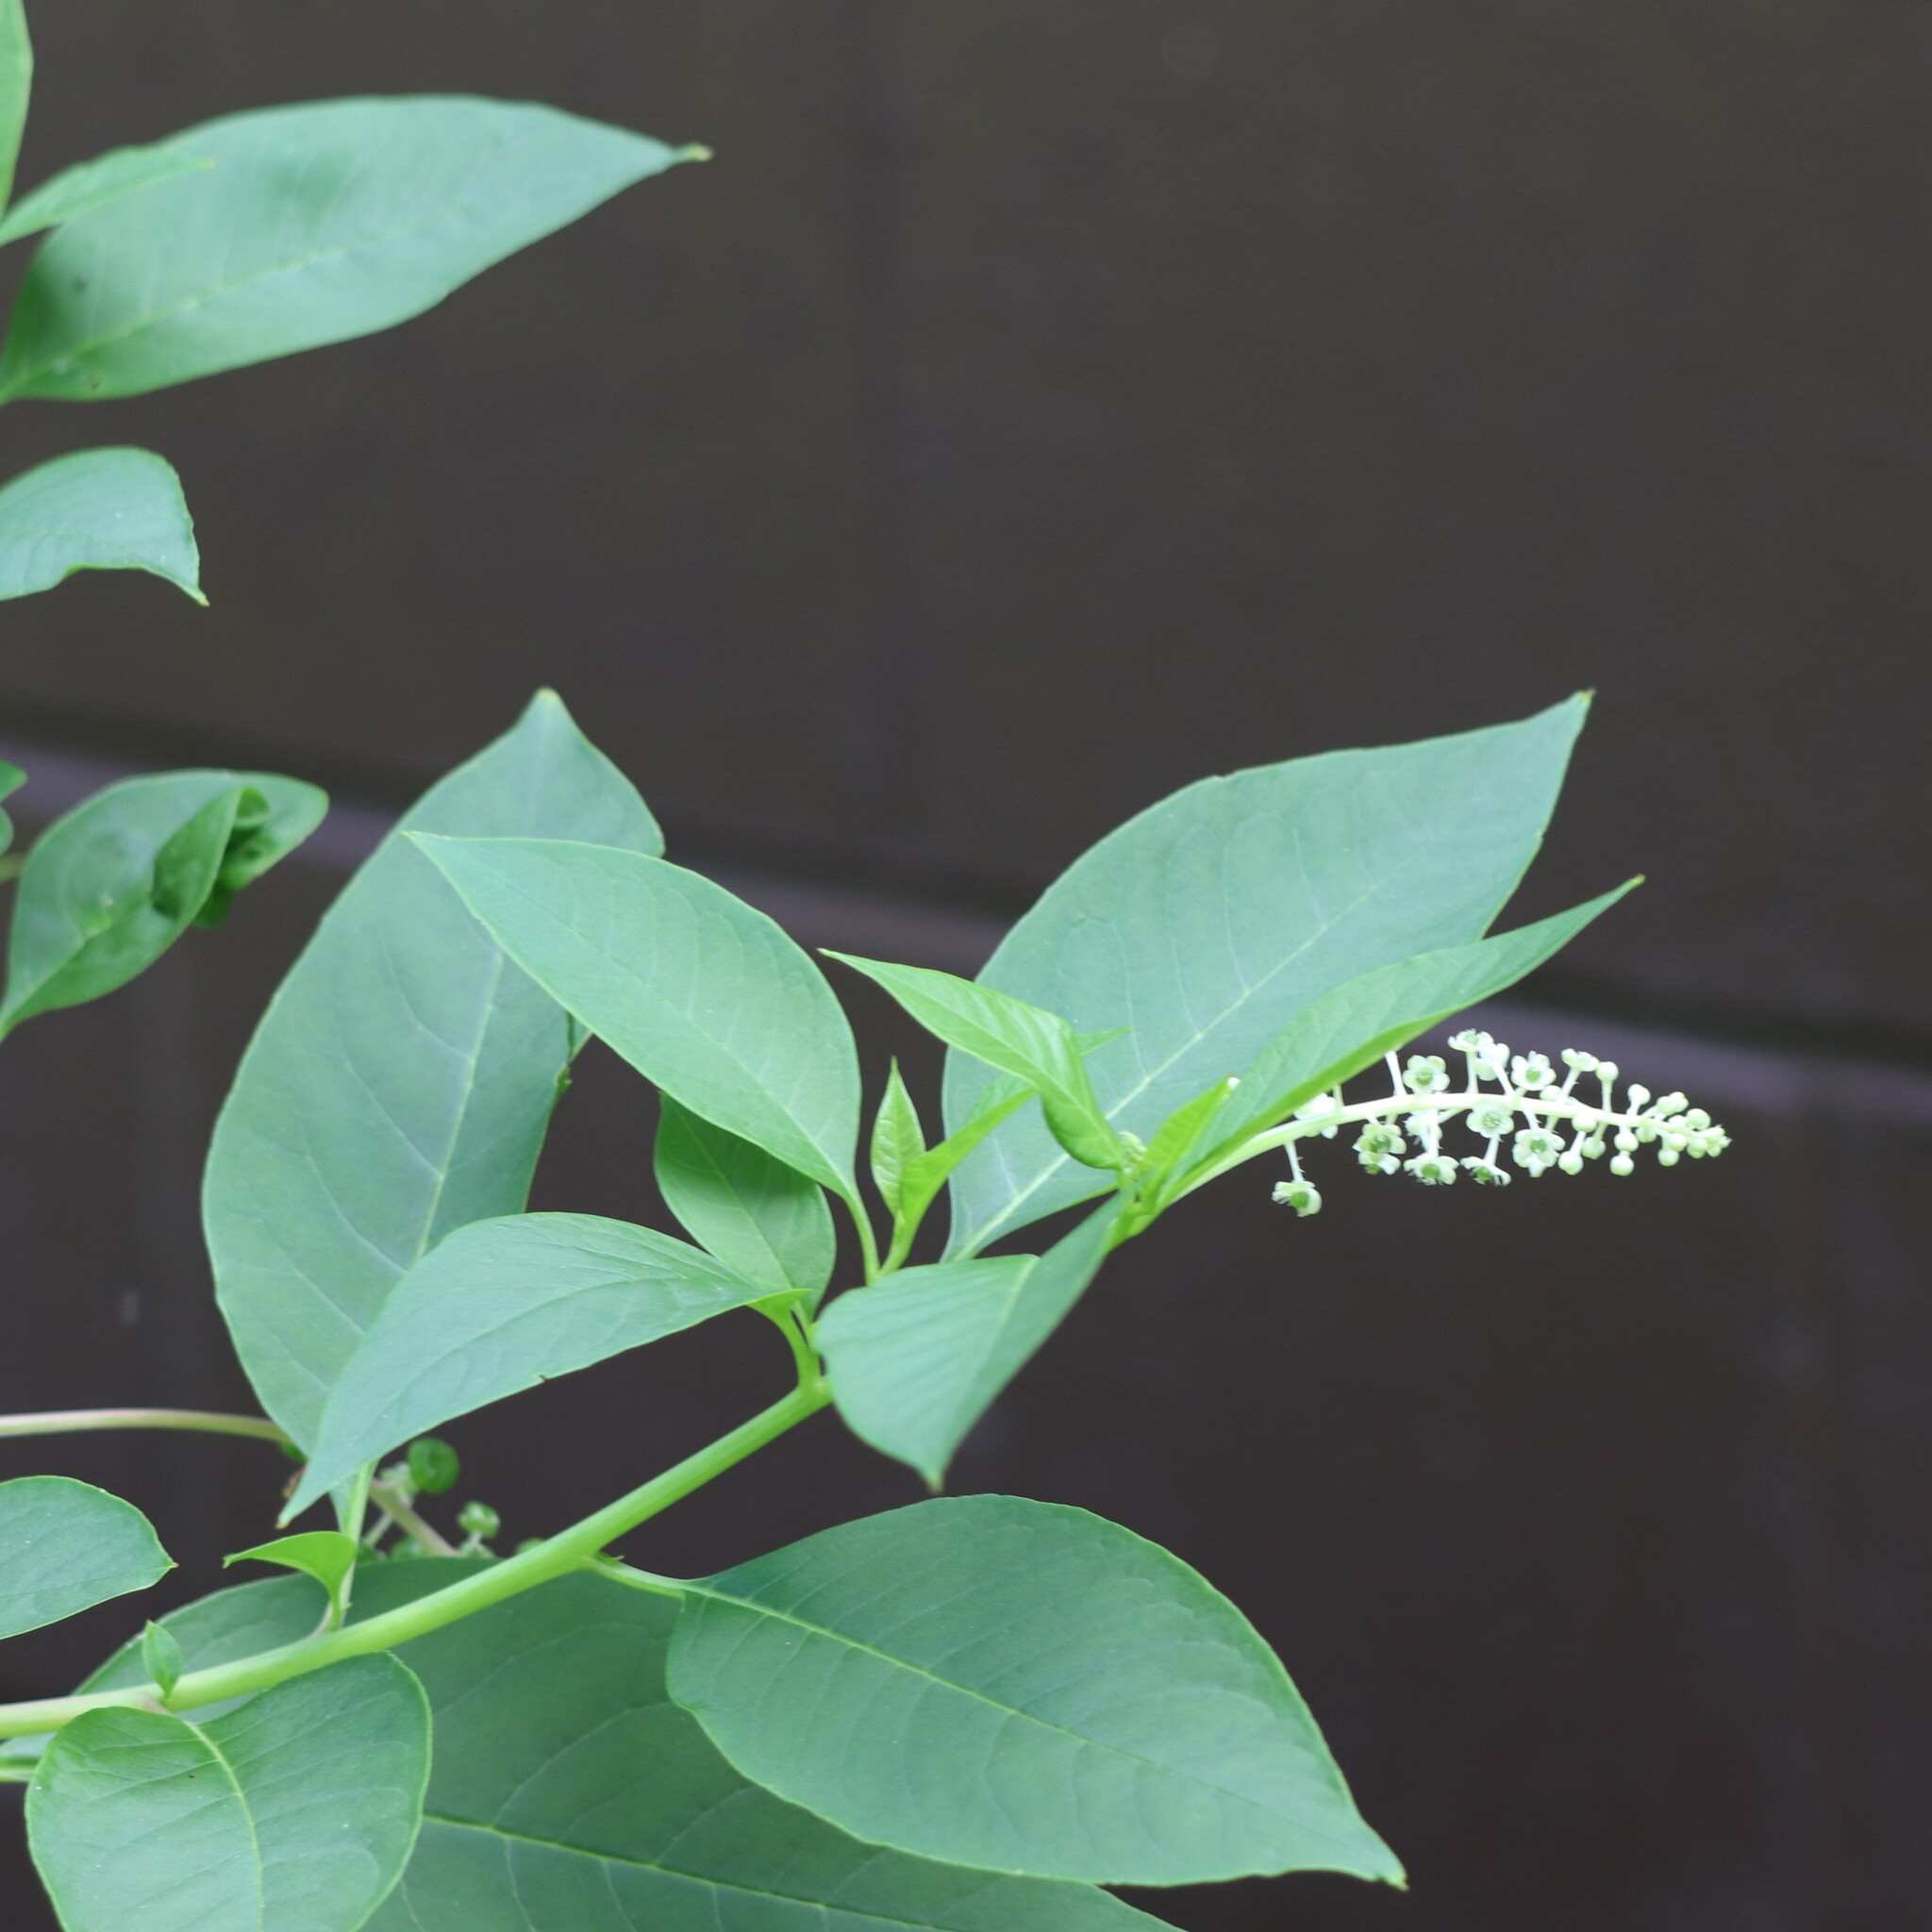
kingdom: Plantae
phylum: Tracheophyta
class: Magnoliopsida
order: Caryophyllales
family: Phytolaccaceae
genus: Phytolacca
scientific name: Phytolacca americana
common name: American pokeweed
